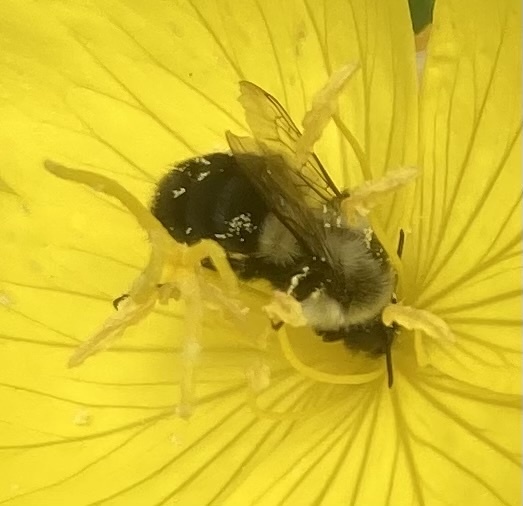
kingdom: Animalia
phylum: Arthropoda
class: Insecta
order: Hymenoptera
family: Apidae
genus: Bombus
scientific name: Bombus impatiens
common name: Common eastern bumble bee
